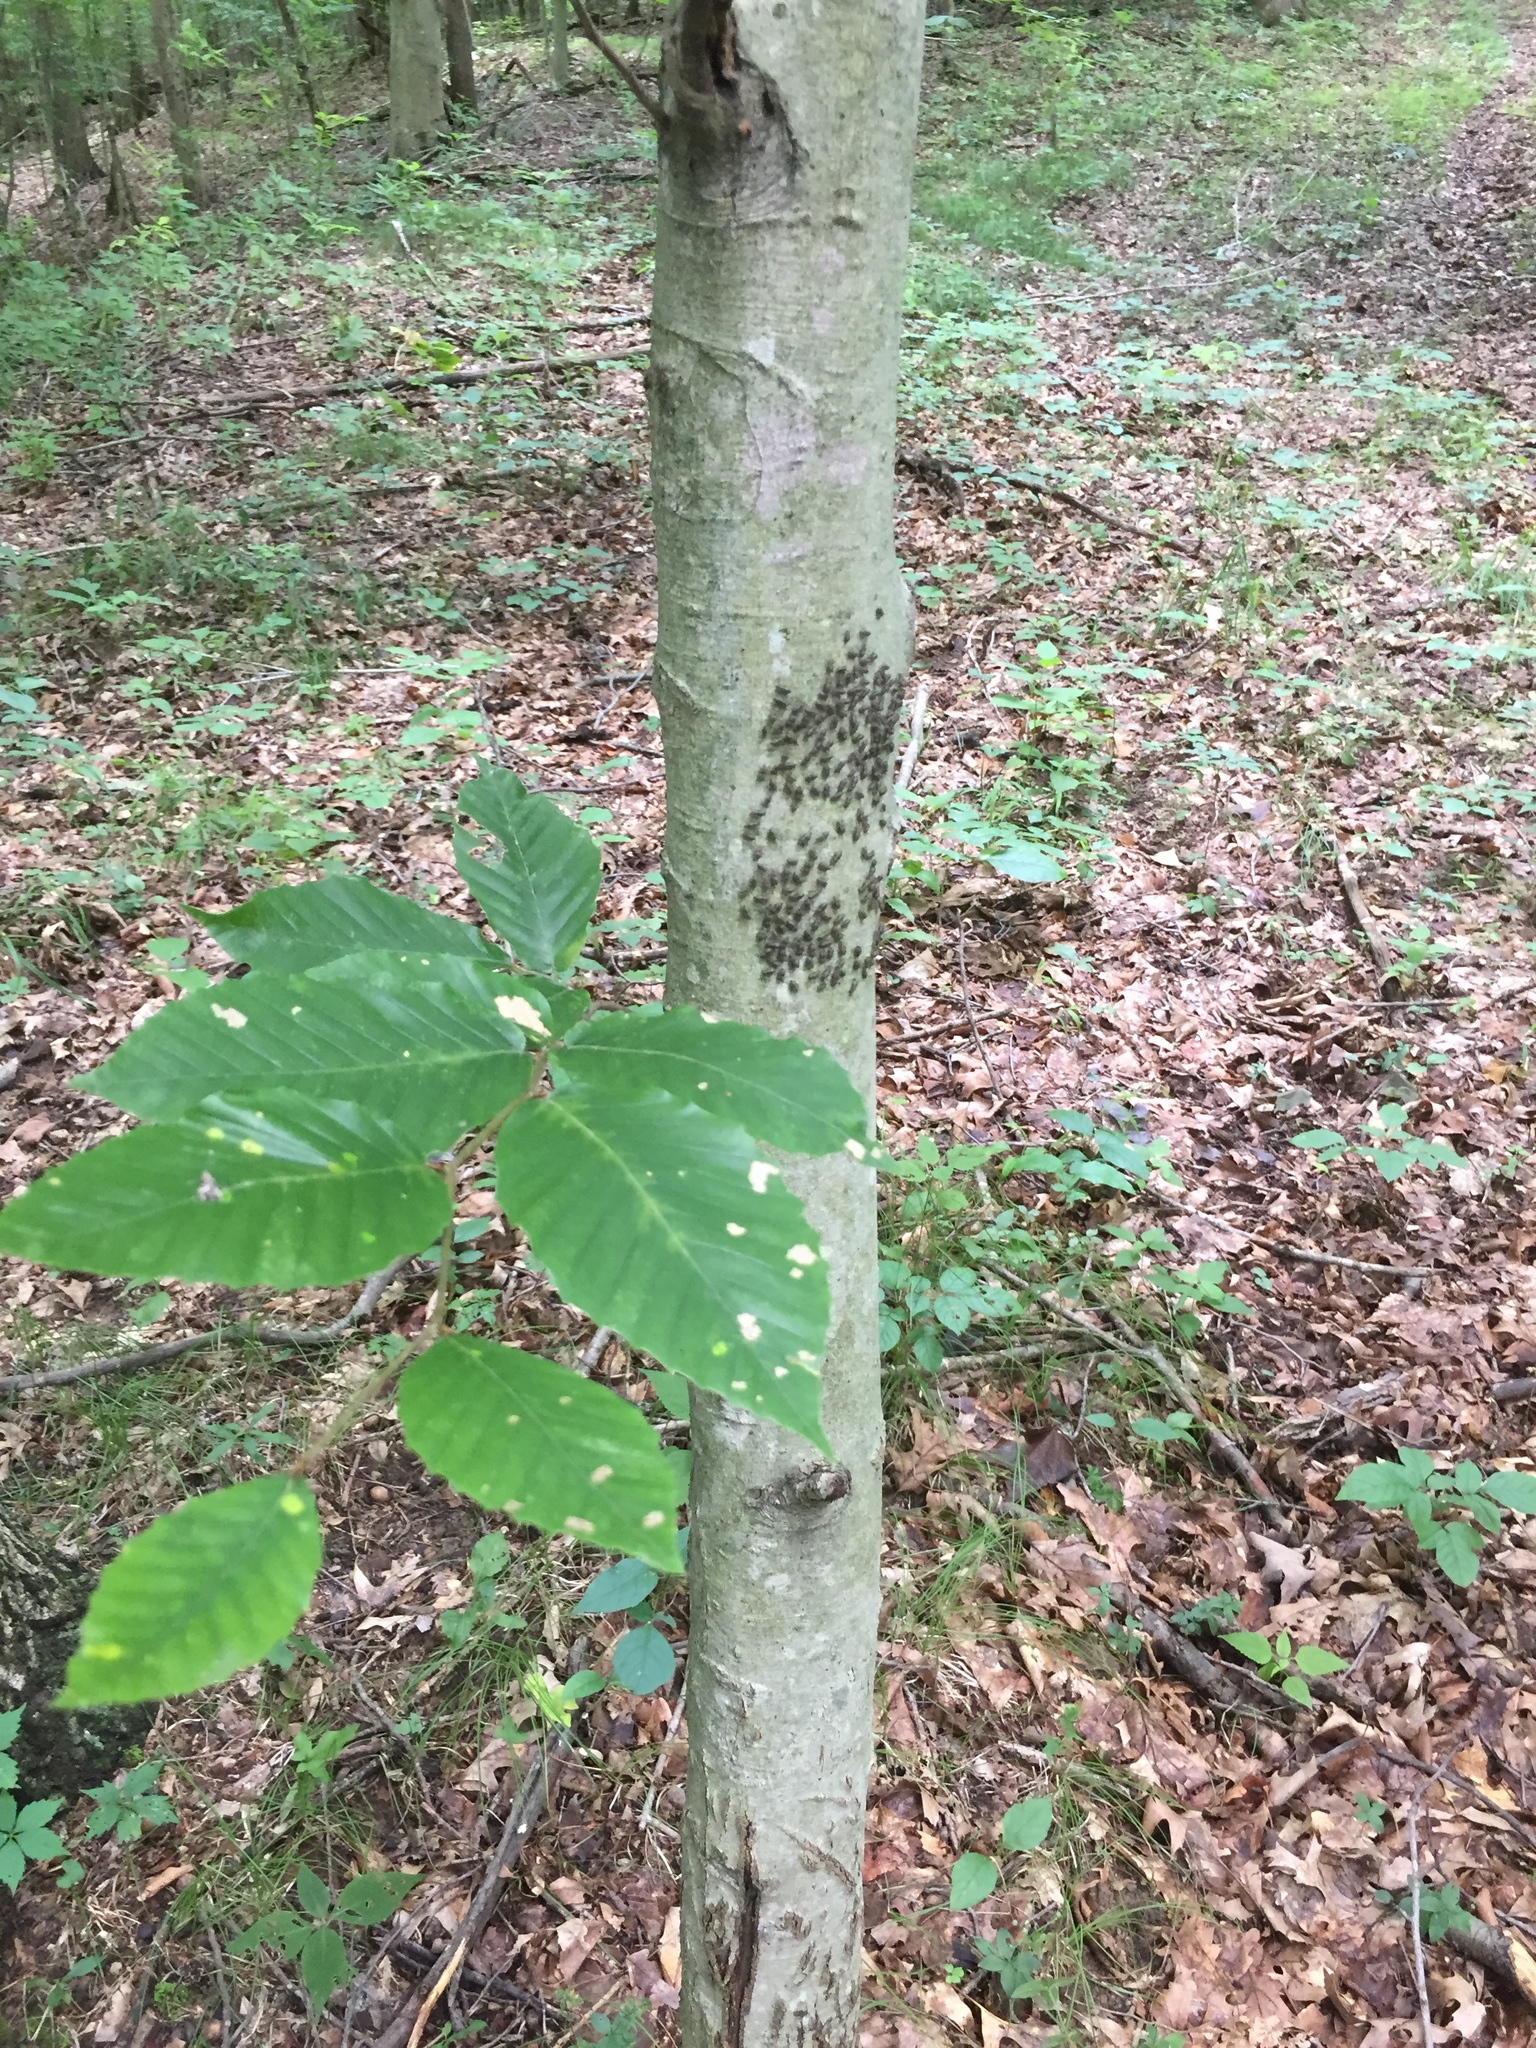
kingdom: Animalia
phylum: Arthropoda
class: Insecta
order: Psocodea
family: Psocidae
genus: Cerastipsocus
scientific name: Cerastipsocus venosus
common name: Tree cattle
